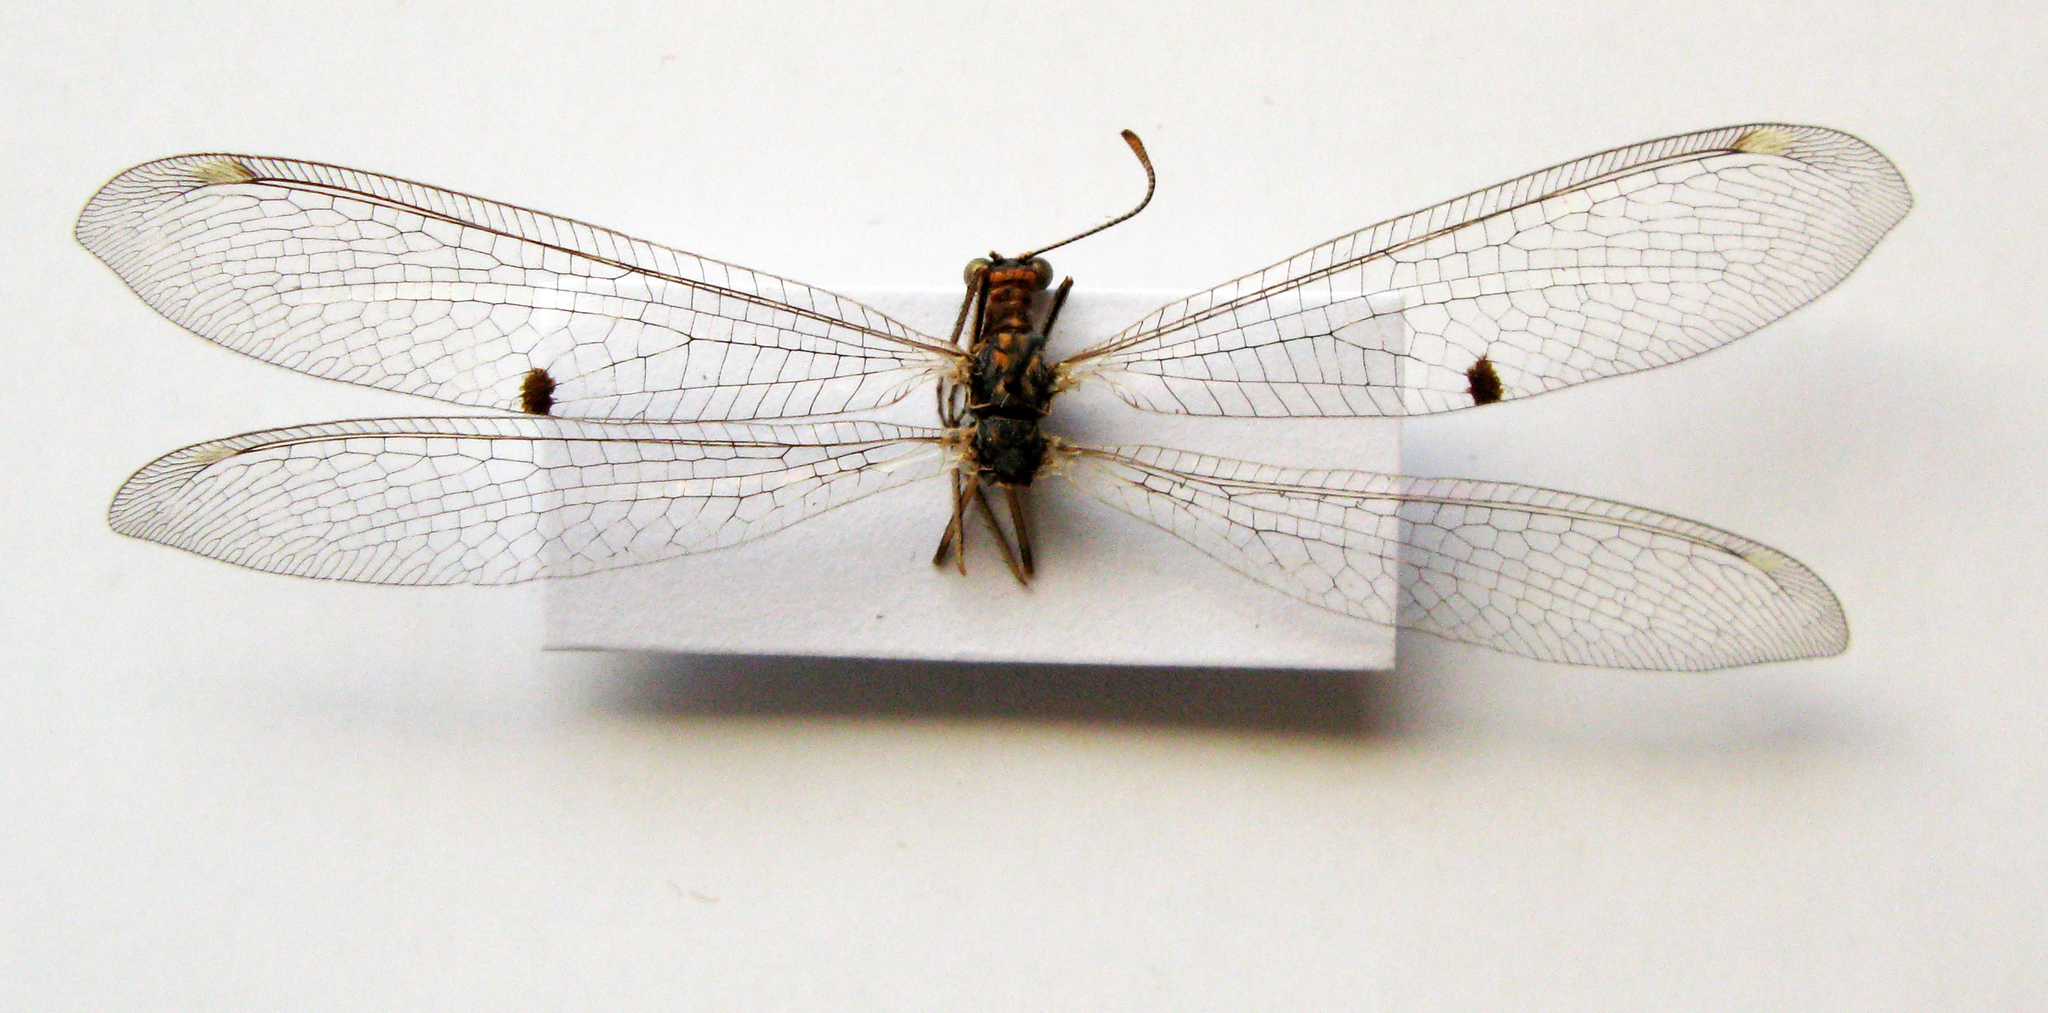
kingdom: Animalia
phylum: Arthropoda
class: Insecta
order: Neuroptera
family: Myrmeleontidae
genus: Megistopus
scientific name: Megistopus flavicornis
